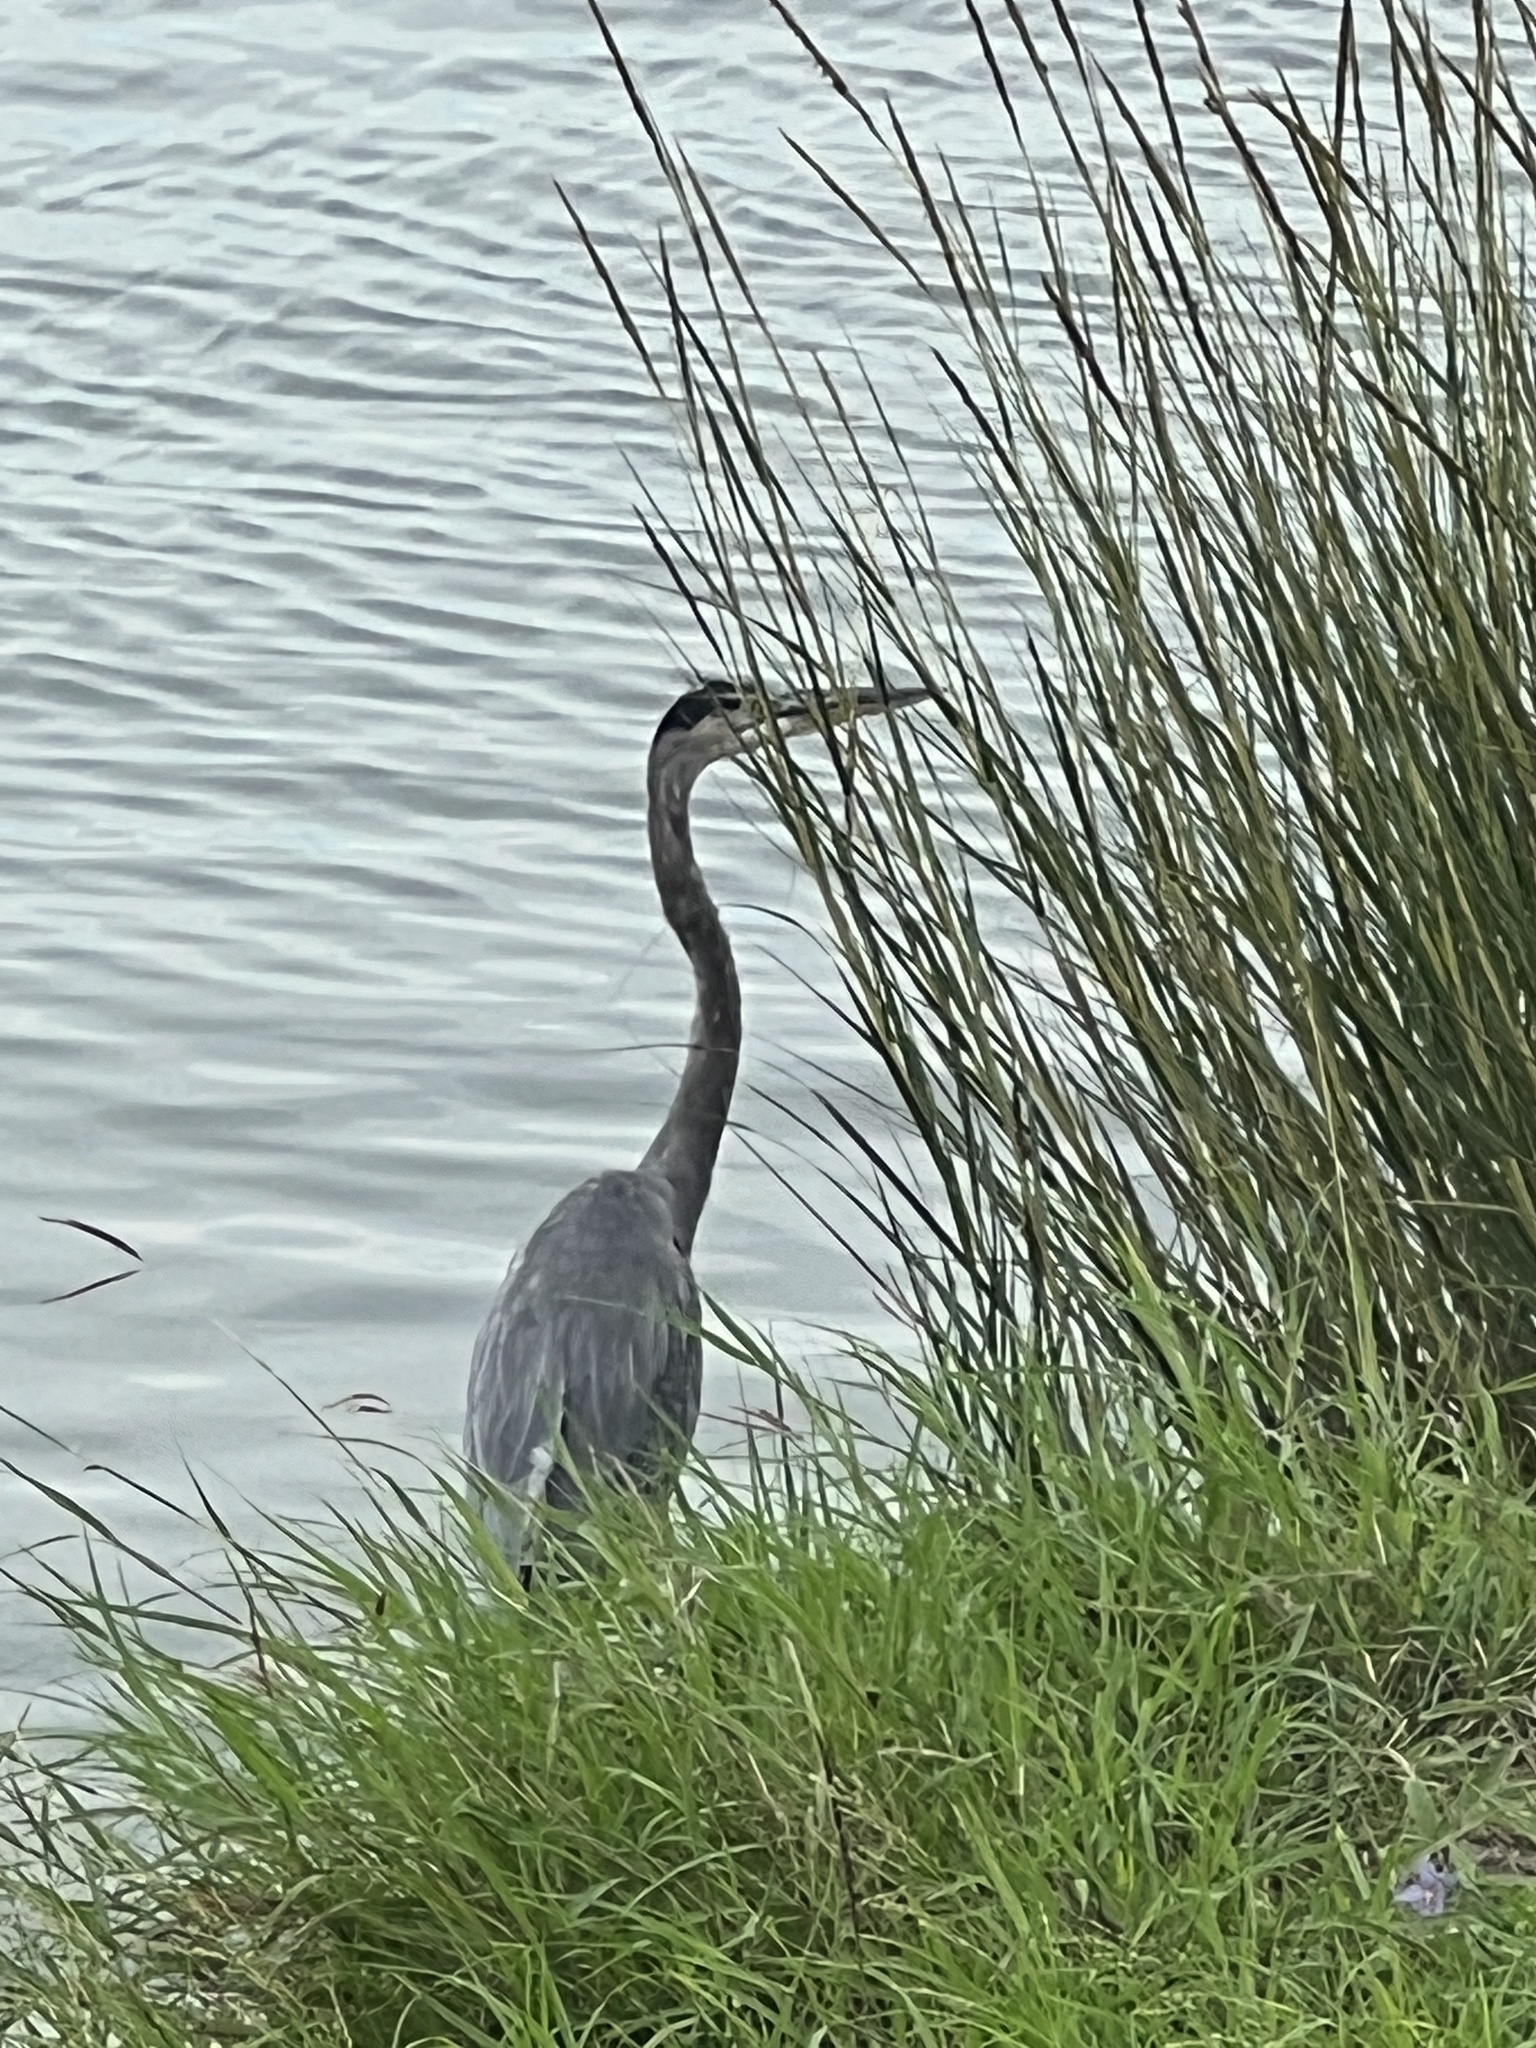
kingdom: Animalia
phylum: Chordata
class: Aves
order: Pelecaniformes
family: Ardeidae
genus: Ardea
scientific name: Ardea herodias
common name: Great blue heron
